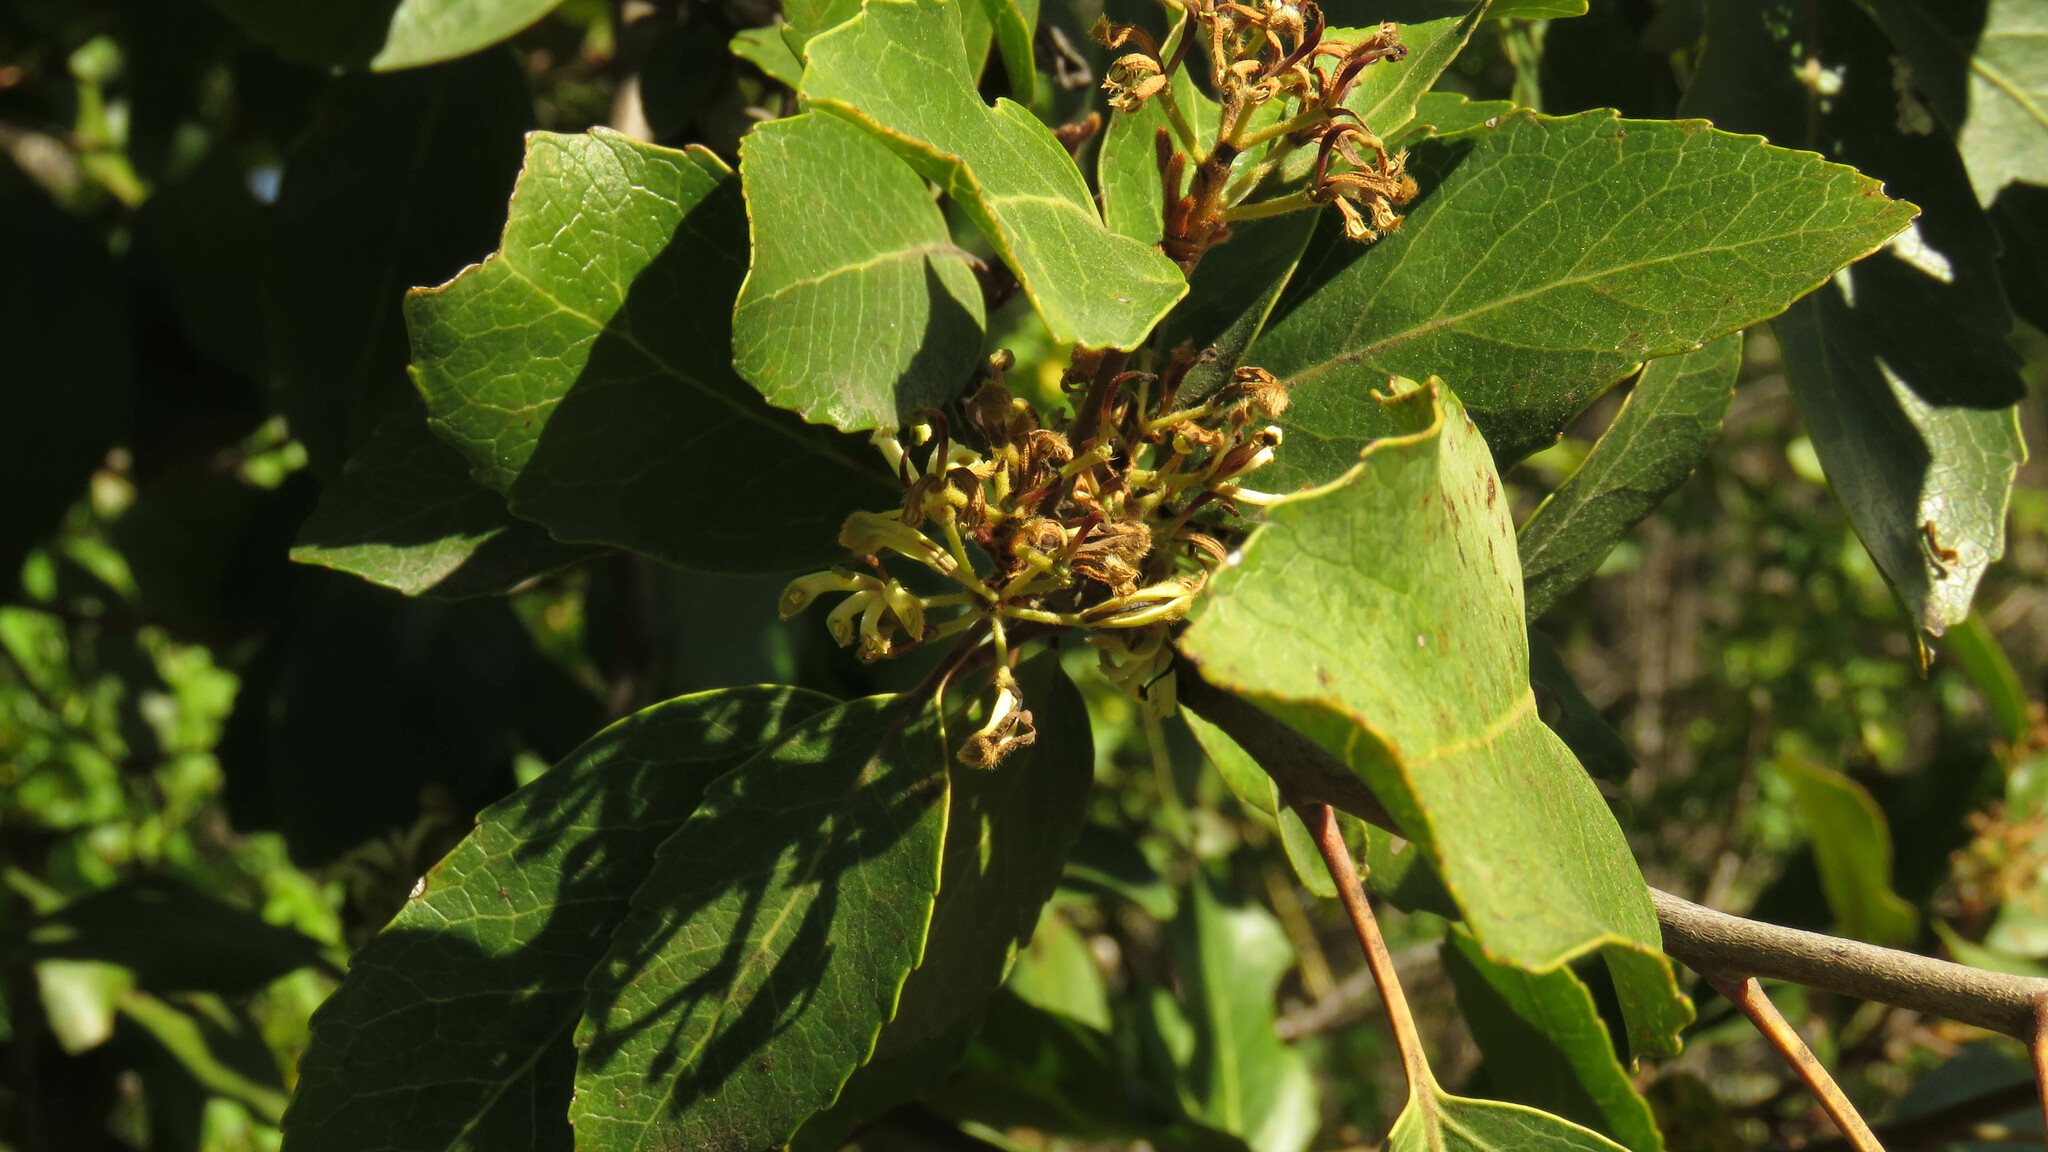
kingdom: Plantae
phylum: Tracheophyta
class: Magnoliopsida
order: Proteales
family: Proteaceae
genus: Lomatia
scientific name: Lomatia hirsuta
